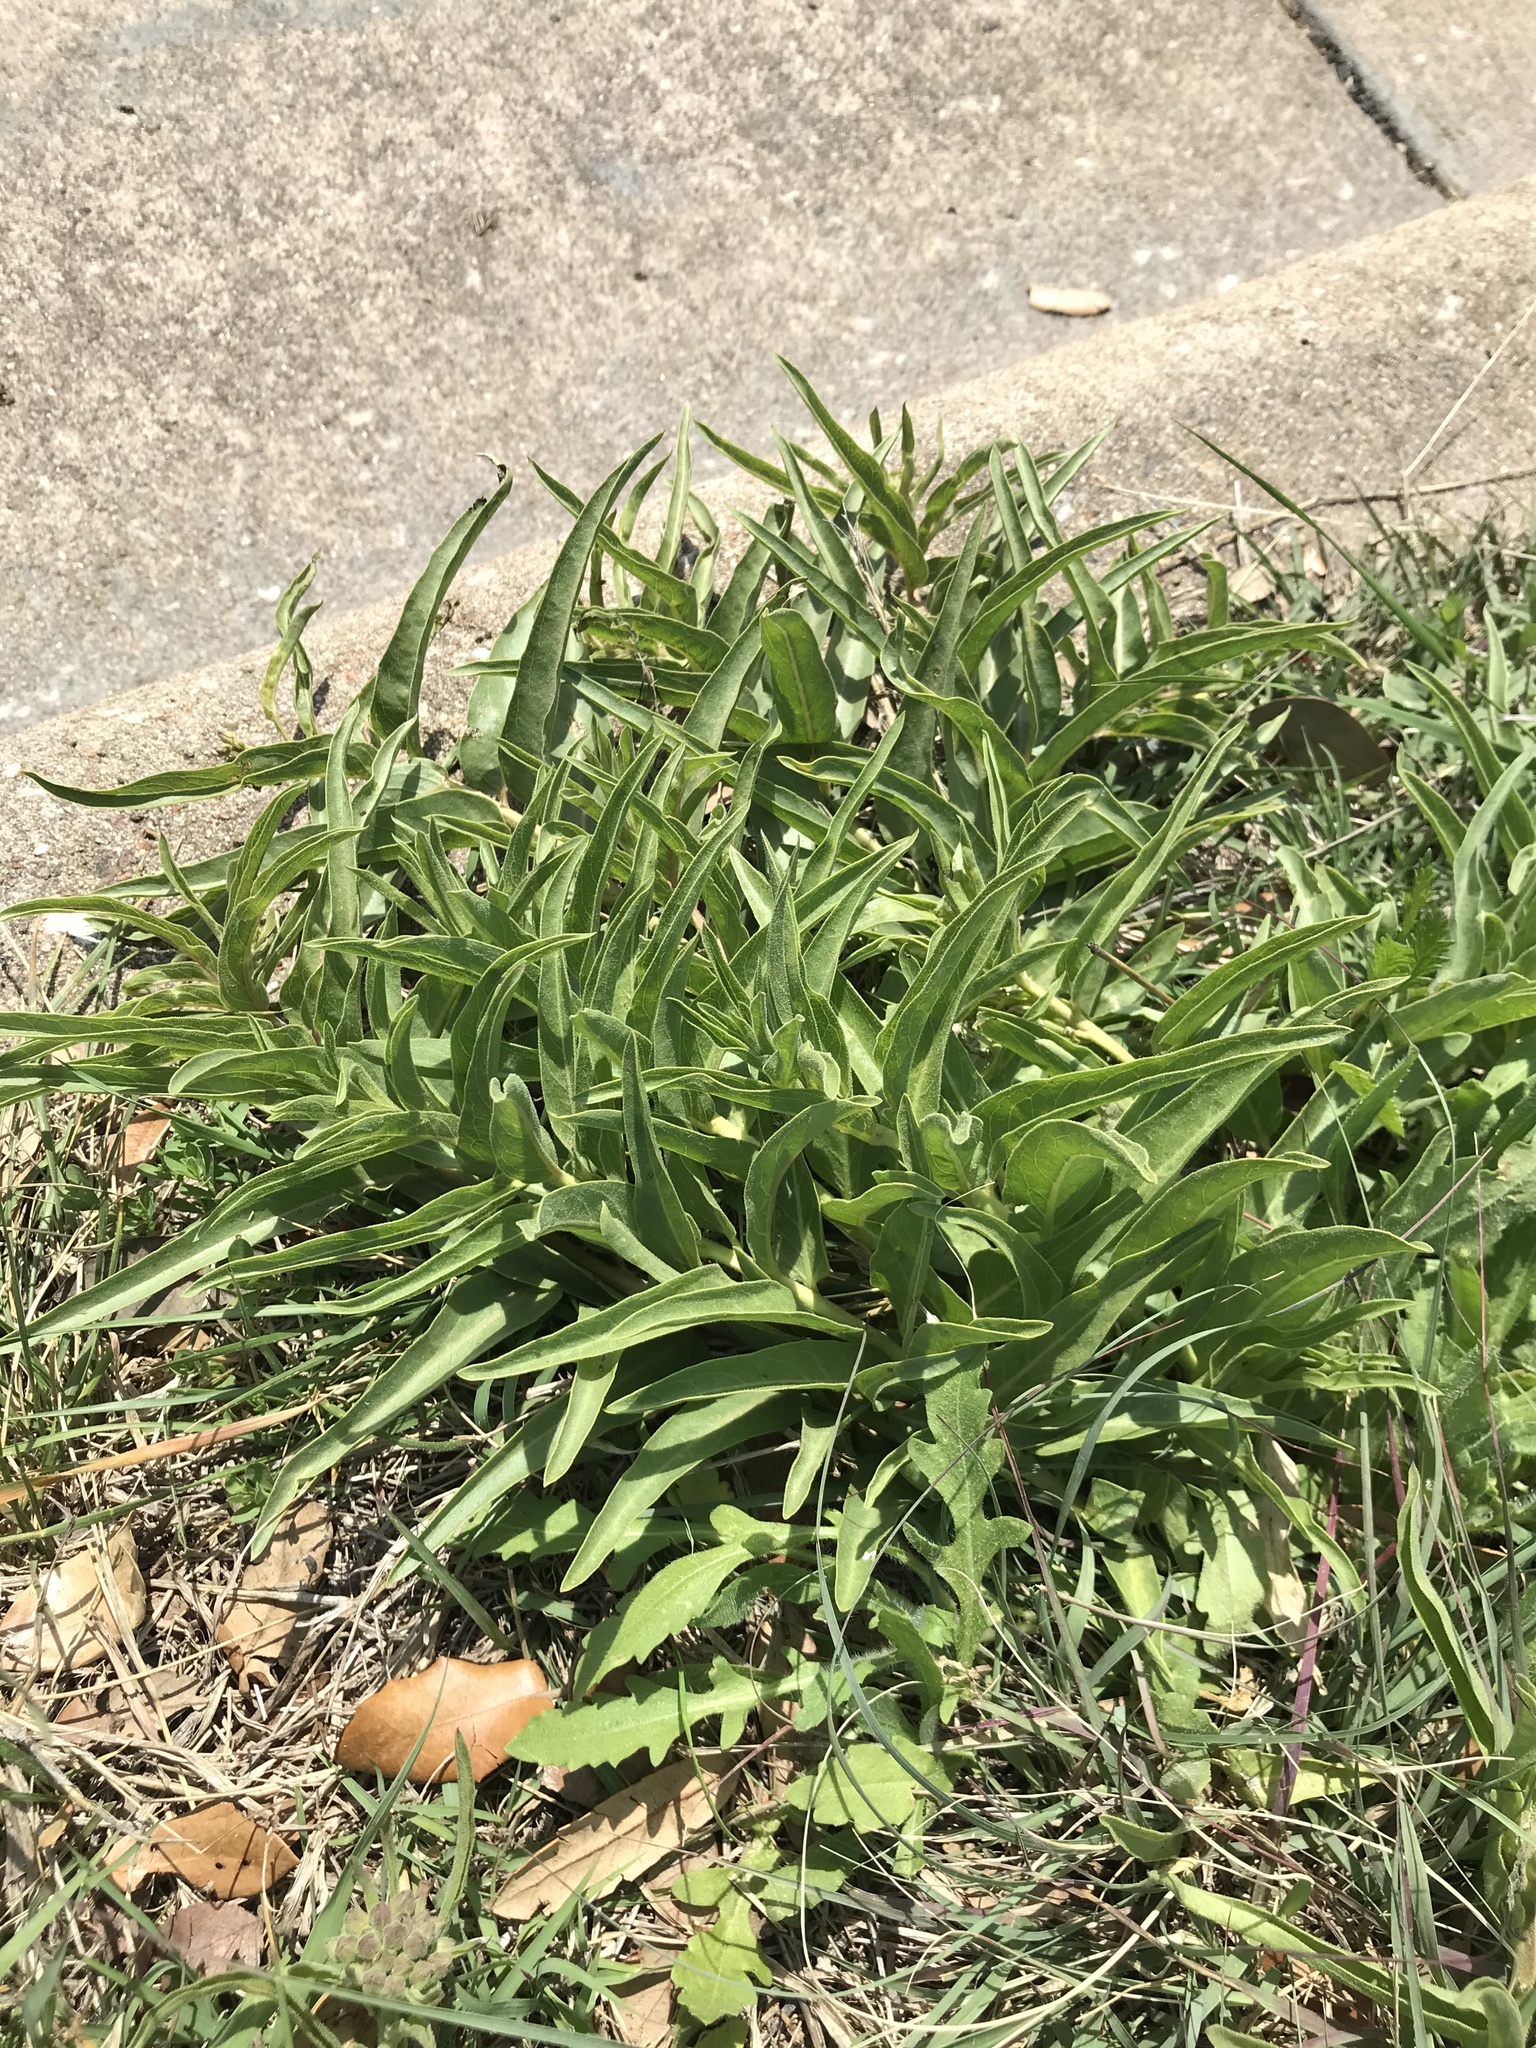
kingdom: Plantae
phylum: Tracheophyta
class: Magnoliopsida
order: Gentianales
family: Apocynaceae
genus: Asclepias
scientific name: Asclepias asperula
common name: Antelope horns
